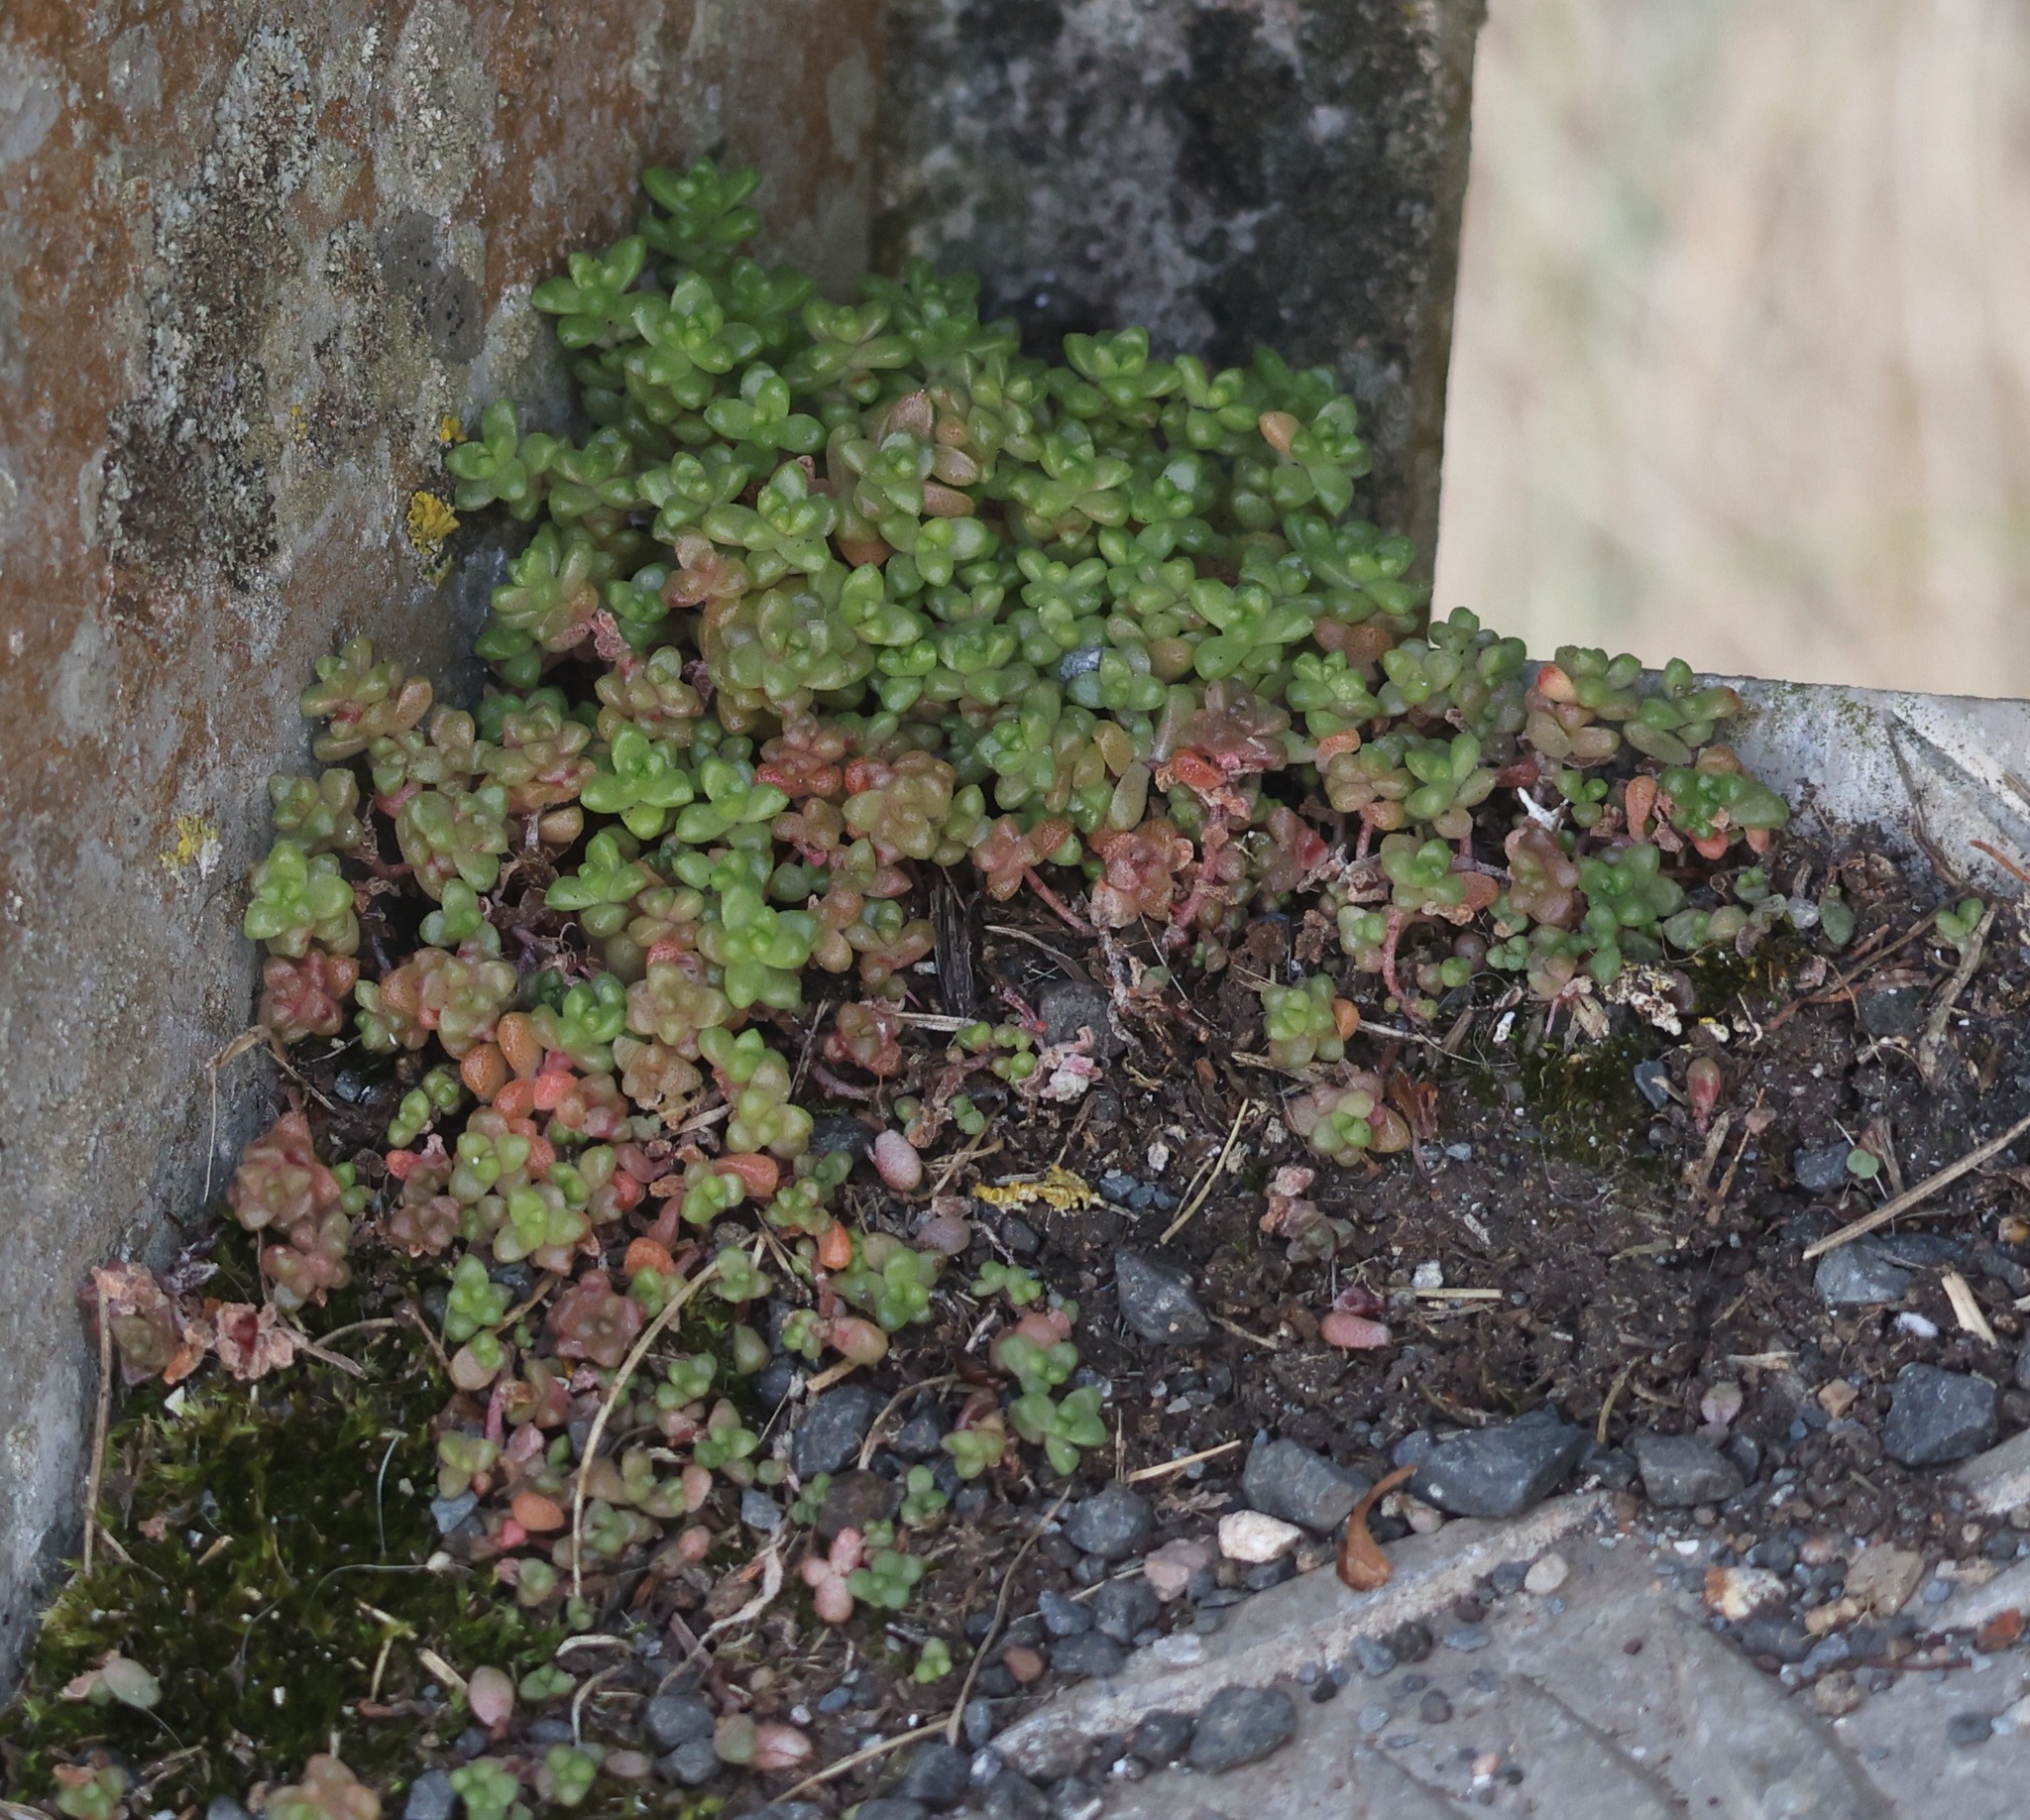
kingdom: Plantae
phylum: Tracheophyta
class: Magnoliopsida
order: Saxifragales
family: Crassulaceae
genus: Sedum
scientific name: Sedum anglicum
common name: English stonecrop
